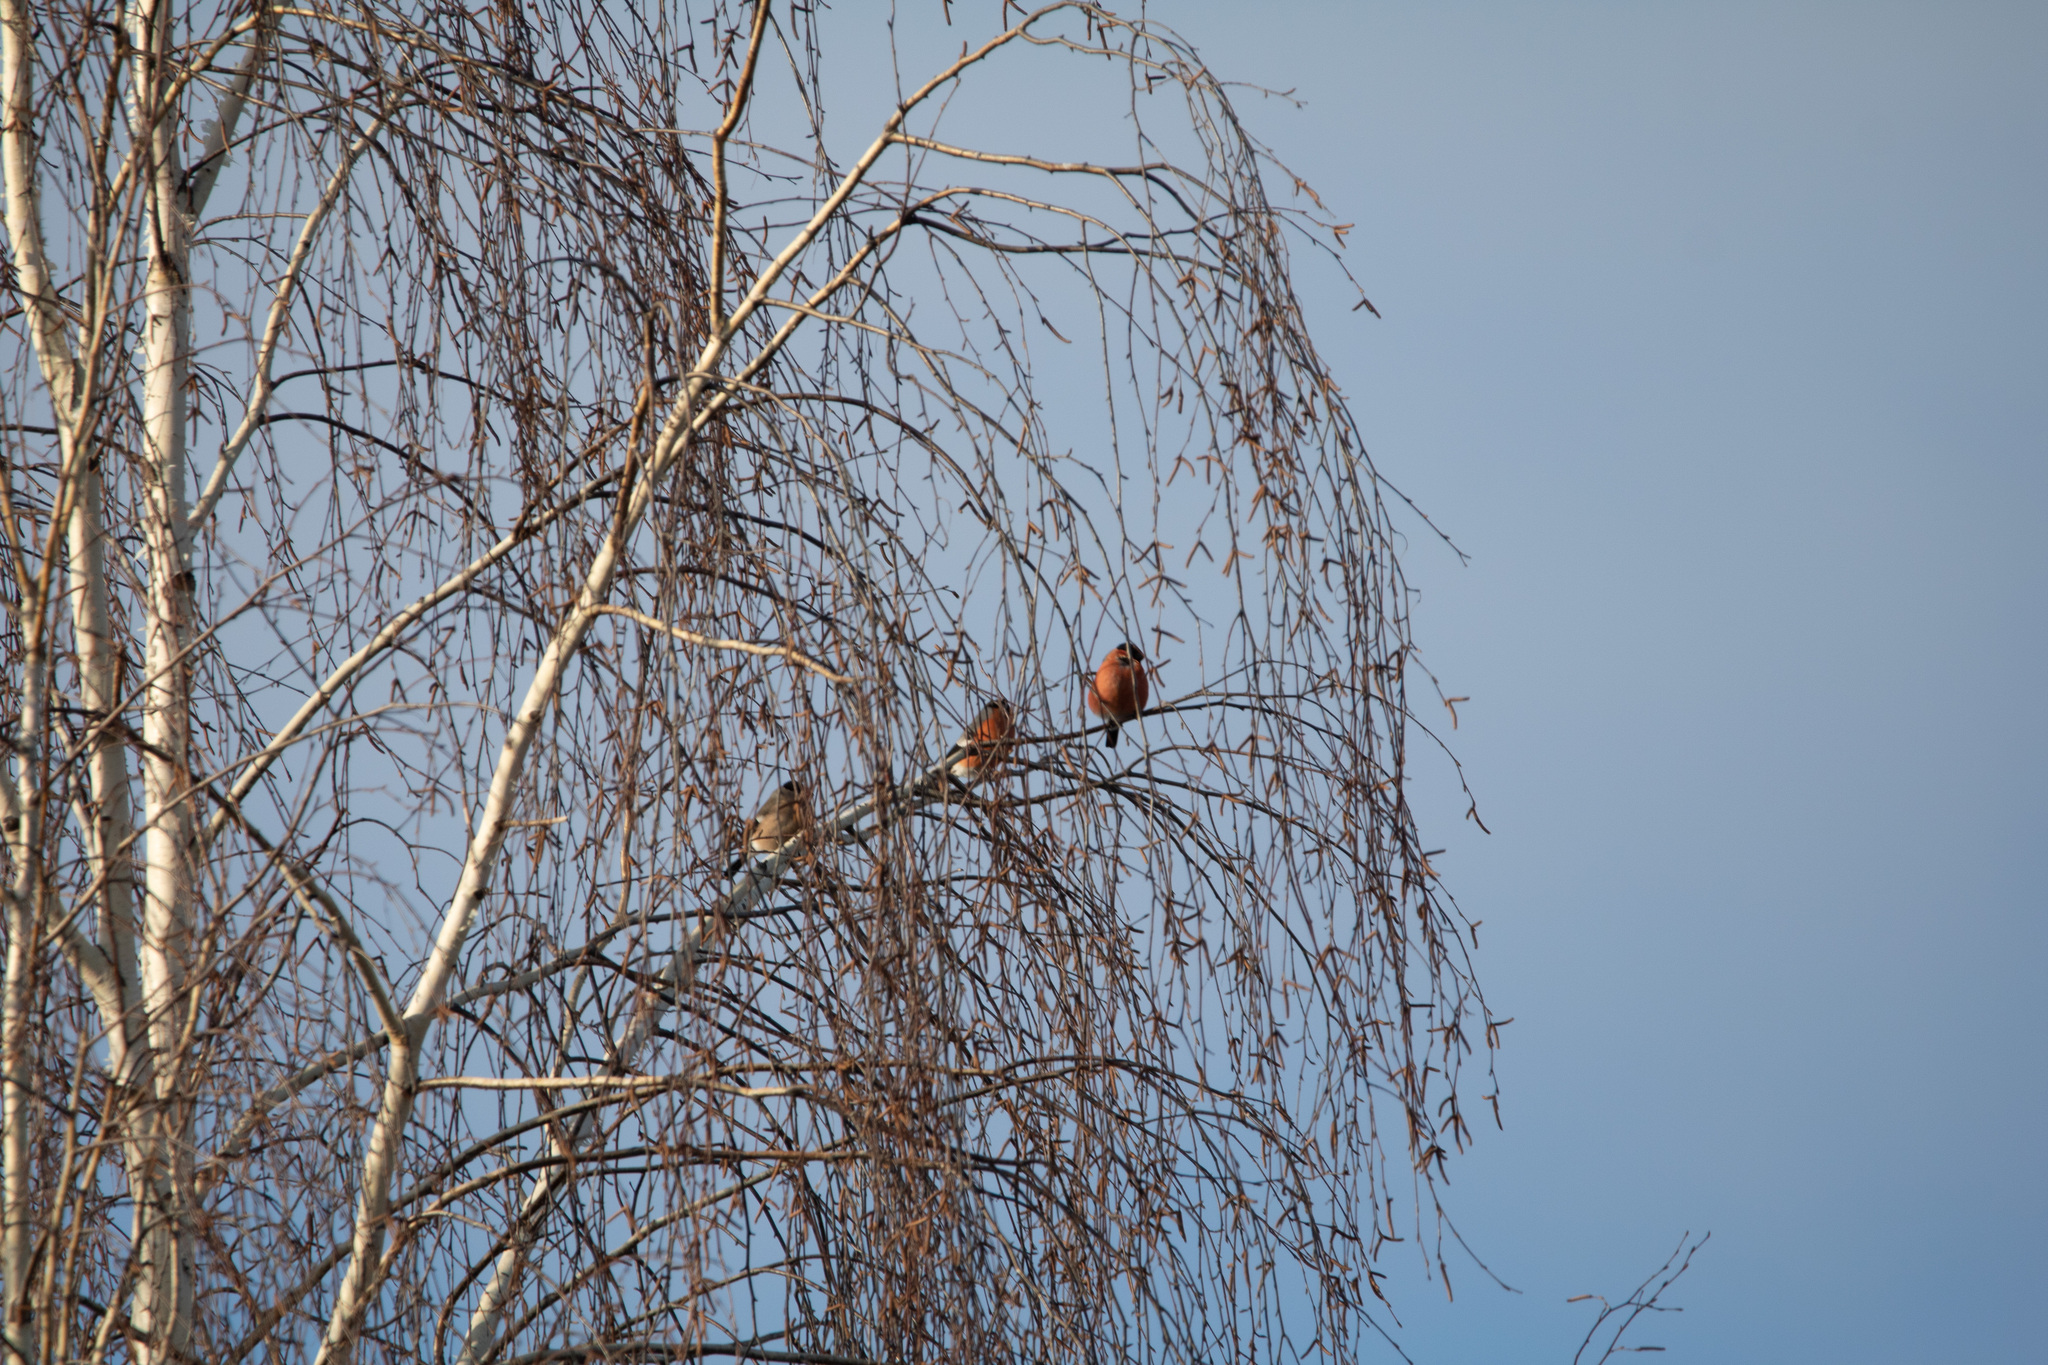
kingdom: Animalia
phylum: Chordata
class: Aves
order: Passeriformes
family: Fringillidae
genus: Pyrrhula
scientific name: Pyrrhula pyrrhula
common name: Eurasian bullfinch
